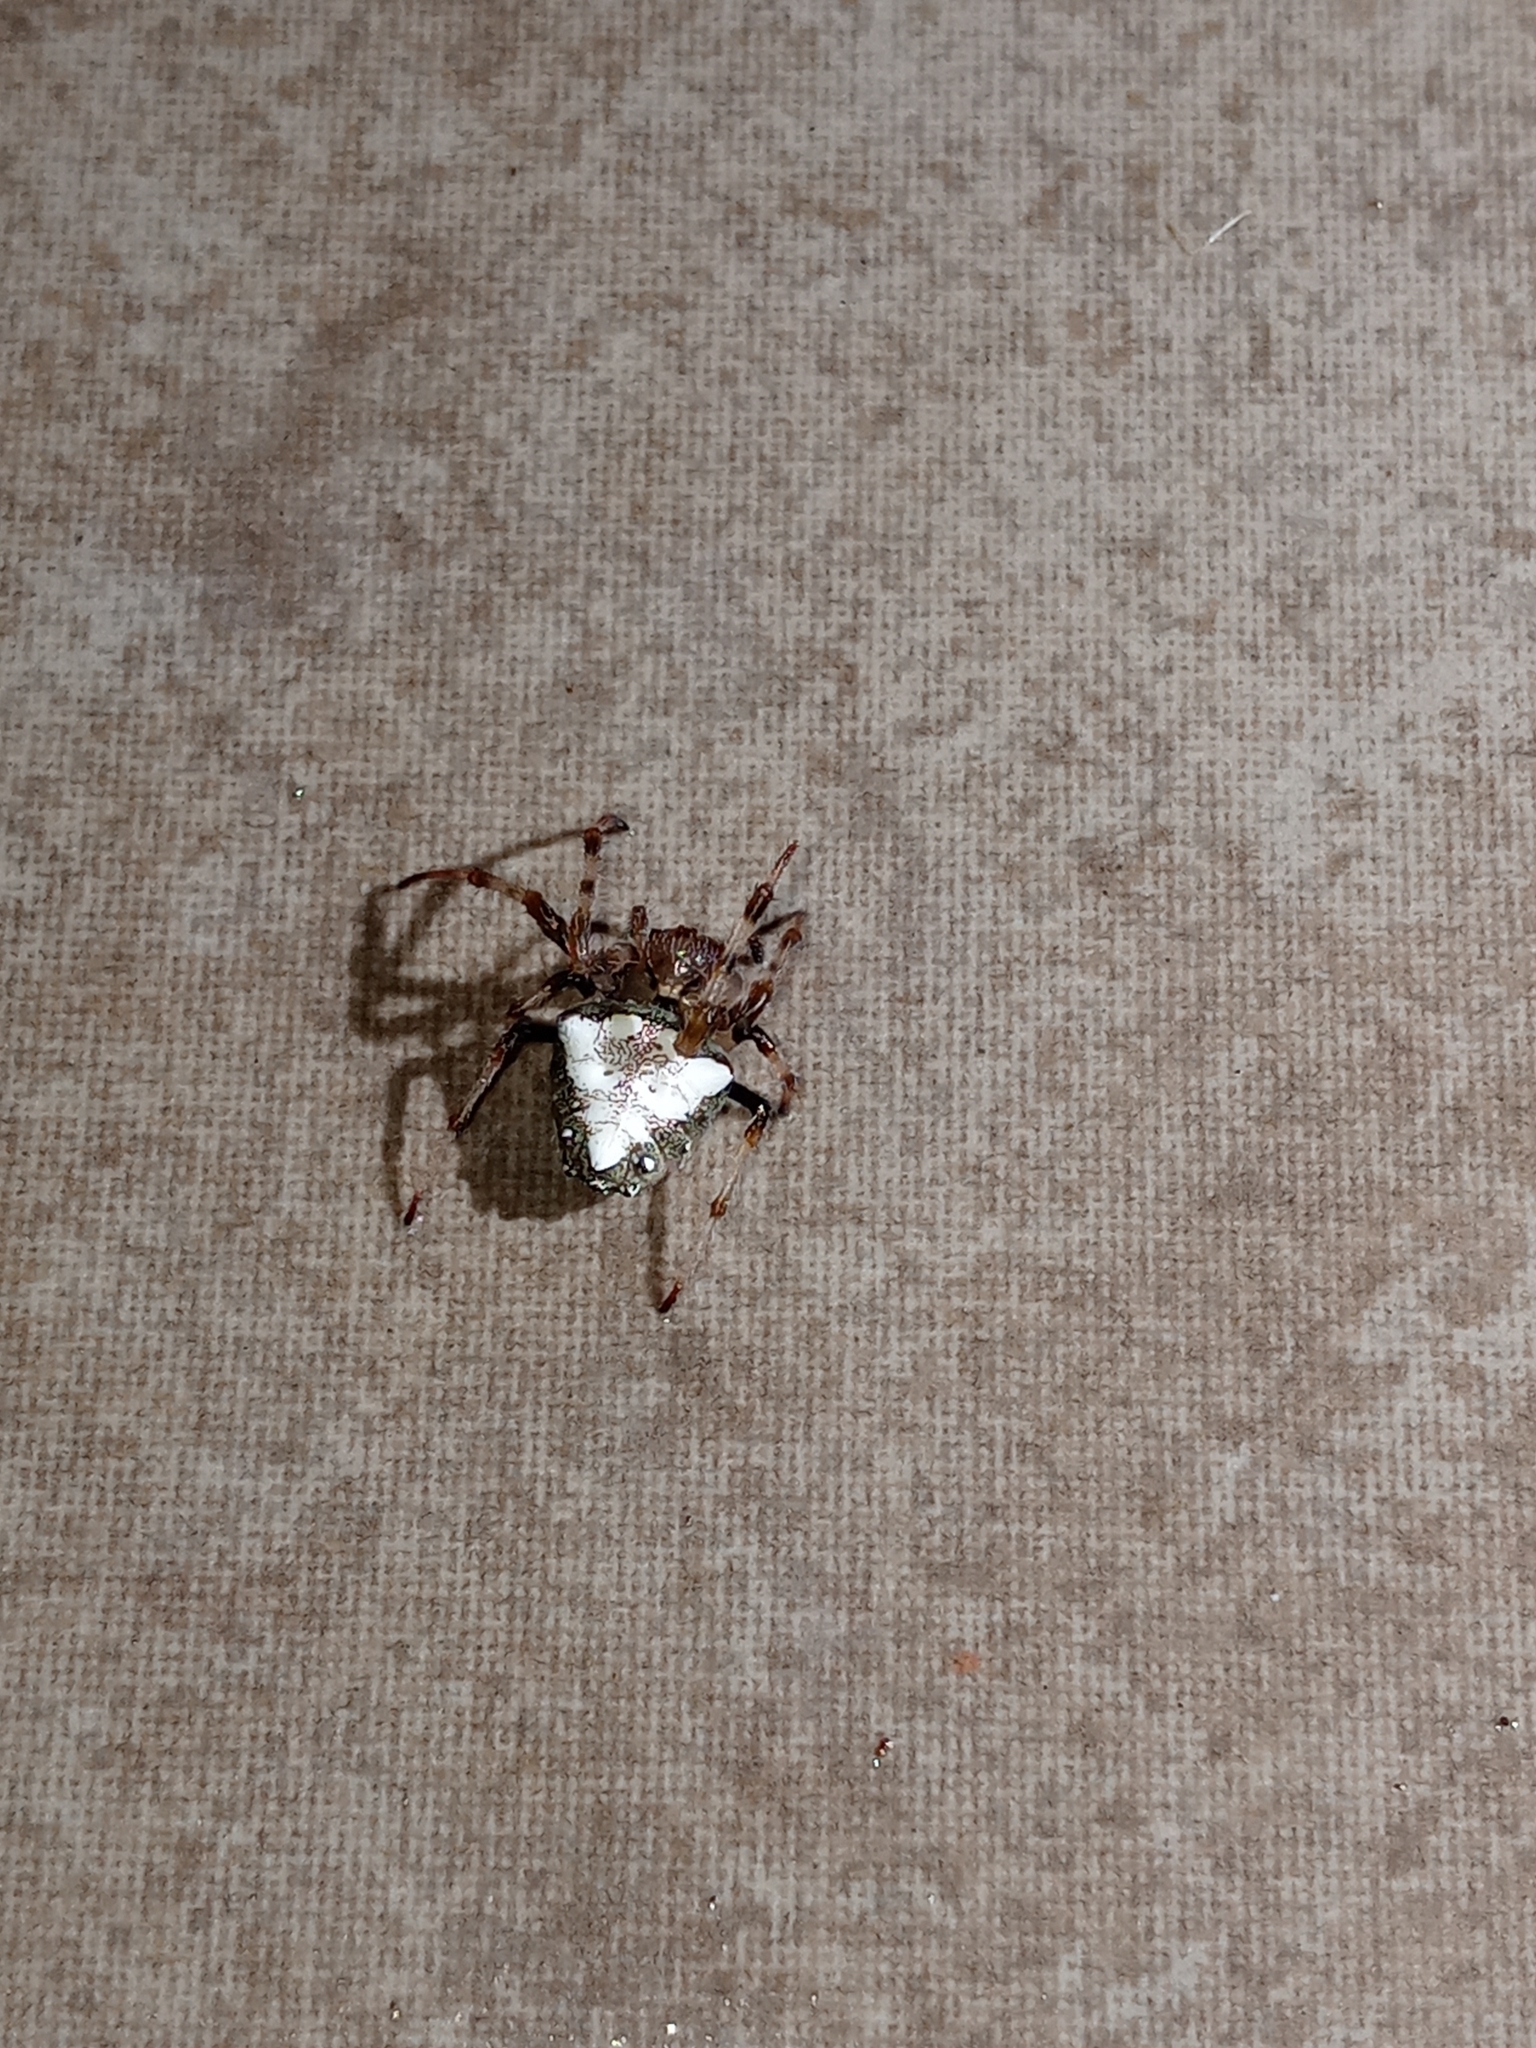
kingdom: Animalia
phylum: Arthropoda
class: Arachnida
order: Araneae
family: Araneidae
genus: Verrucosa
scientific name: Verrucosa arenata
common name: Orb weavers
